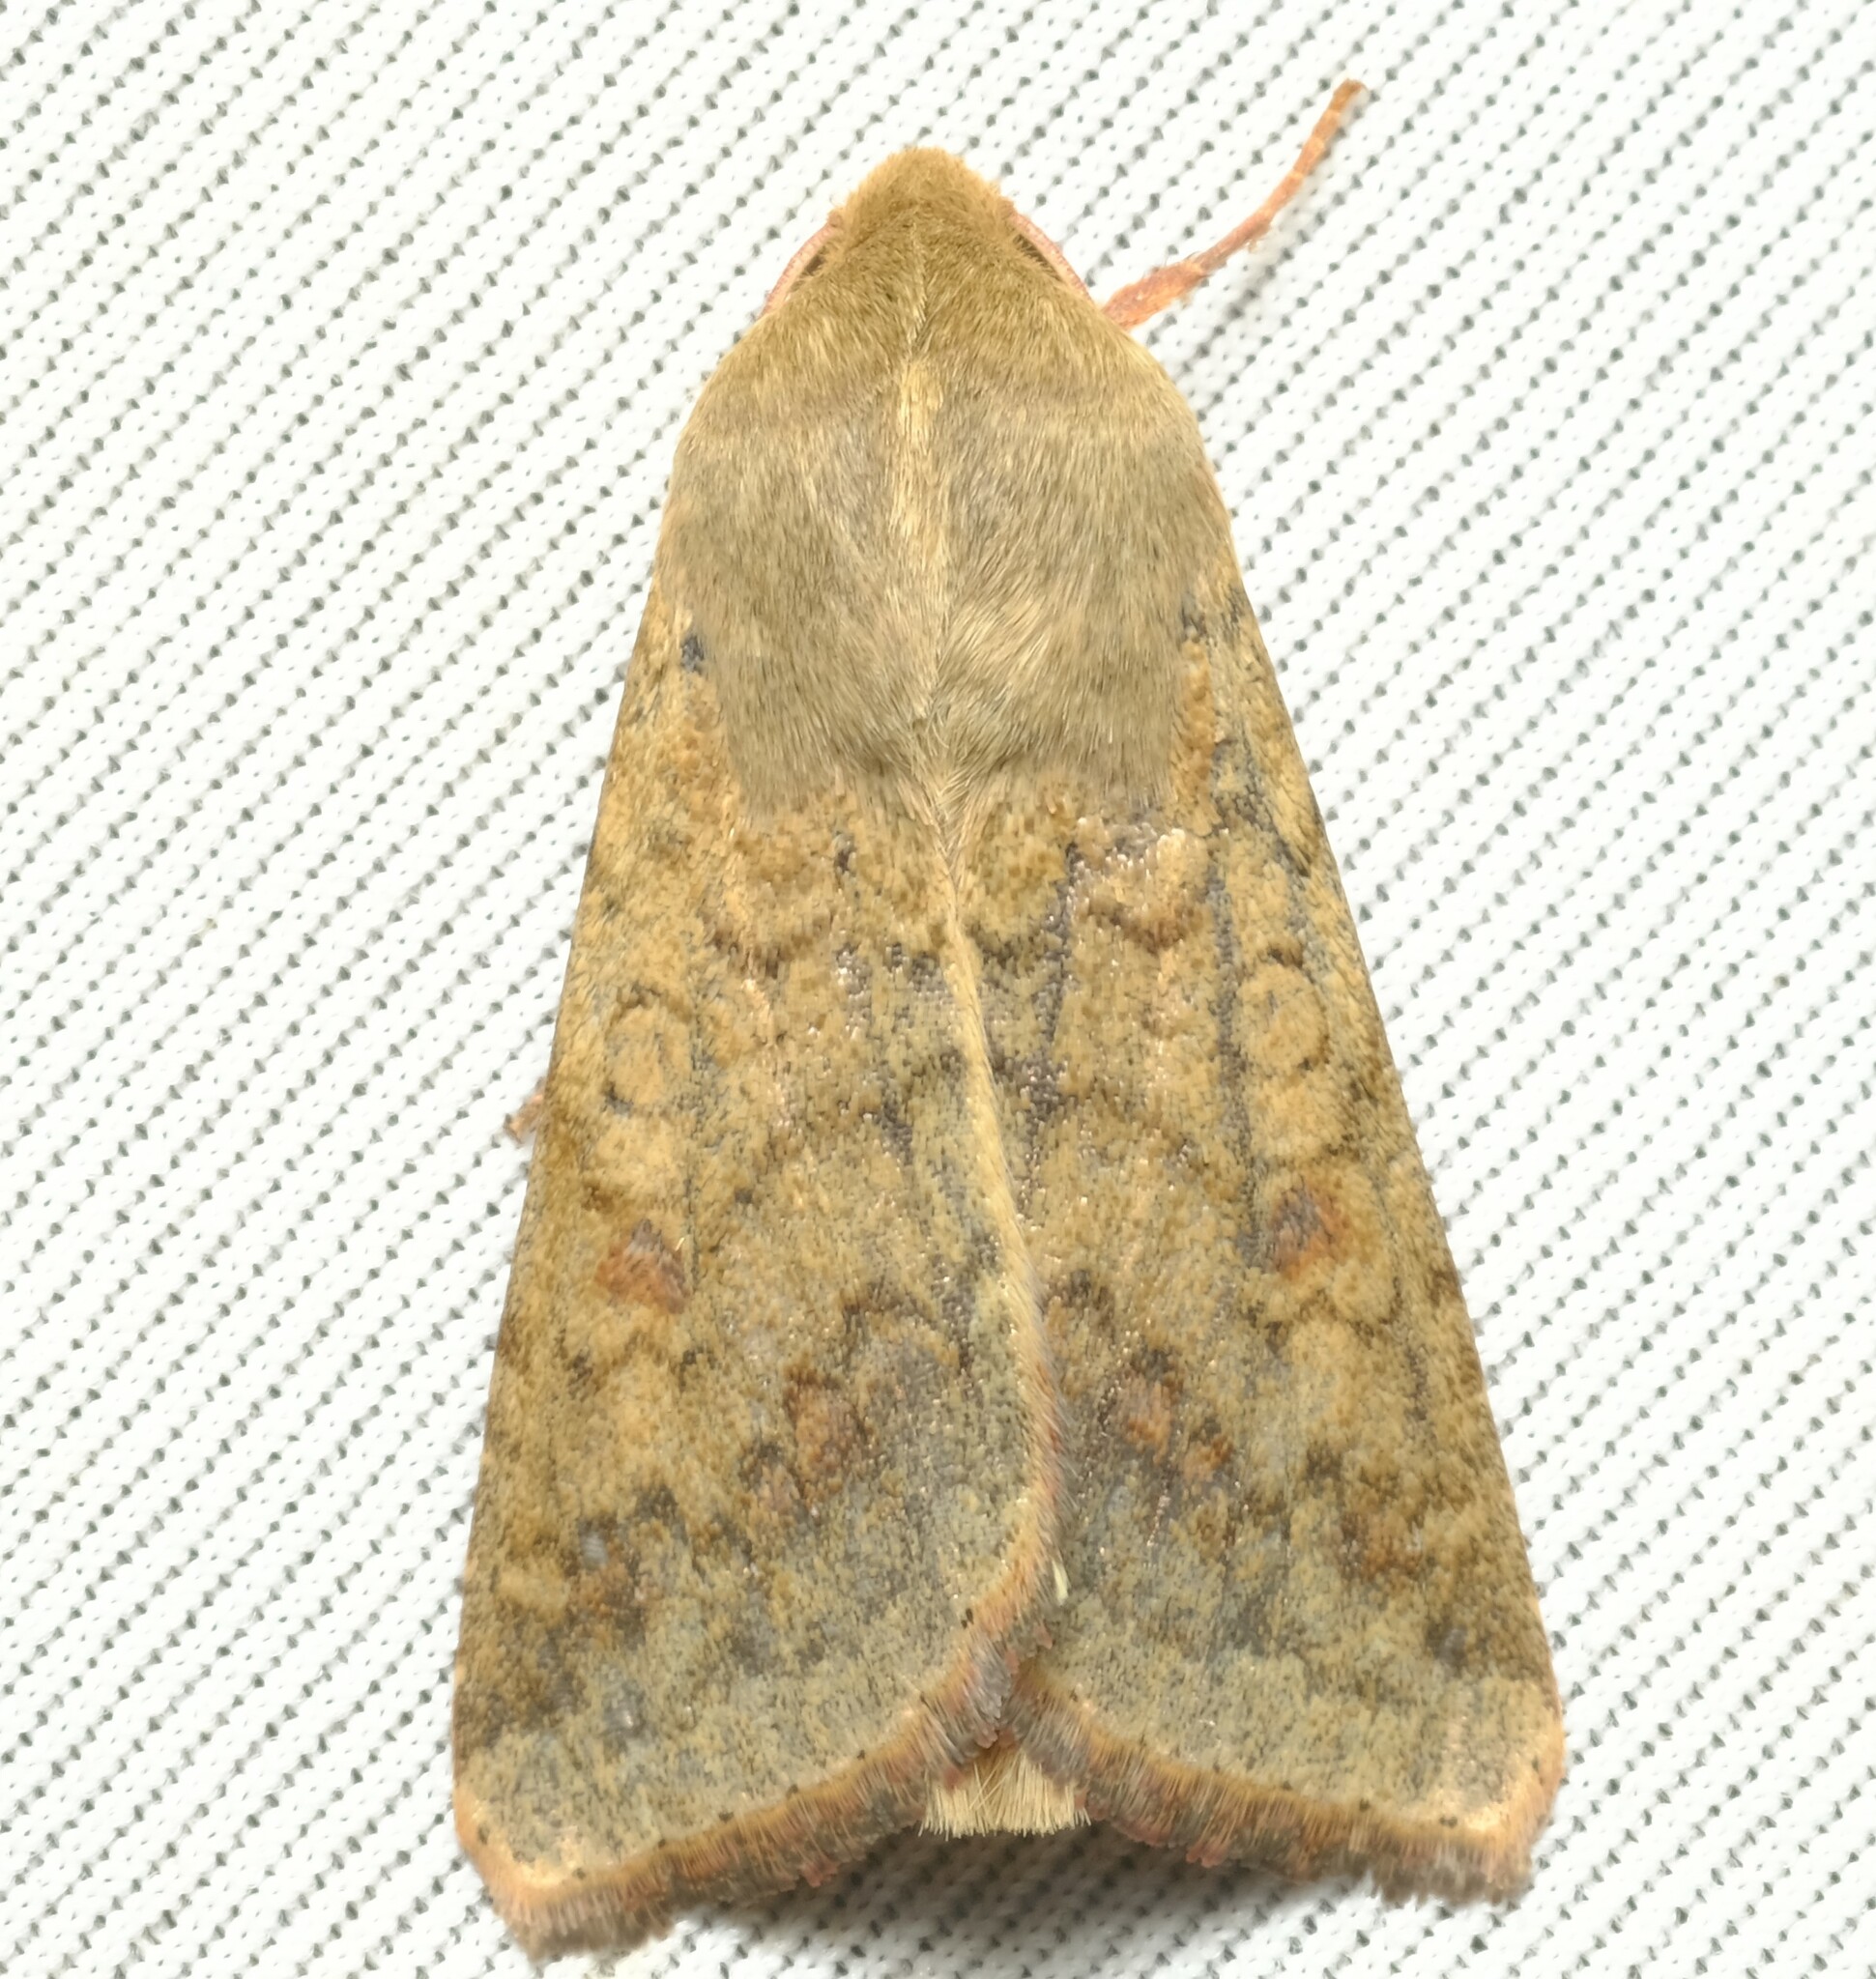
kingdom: Animalia
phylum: Arthropoda
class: Insecta
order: Lepidoptera
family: Noctuidae
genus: Australothis
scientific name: Australothis rubrescens
